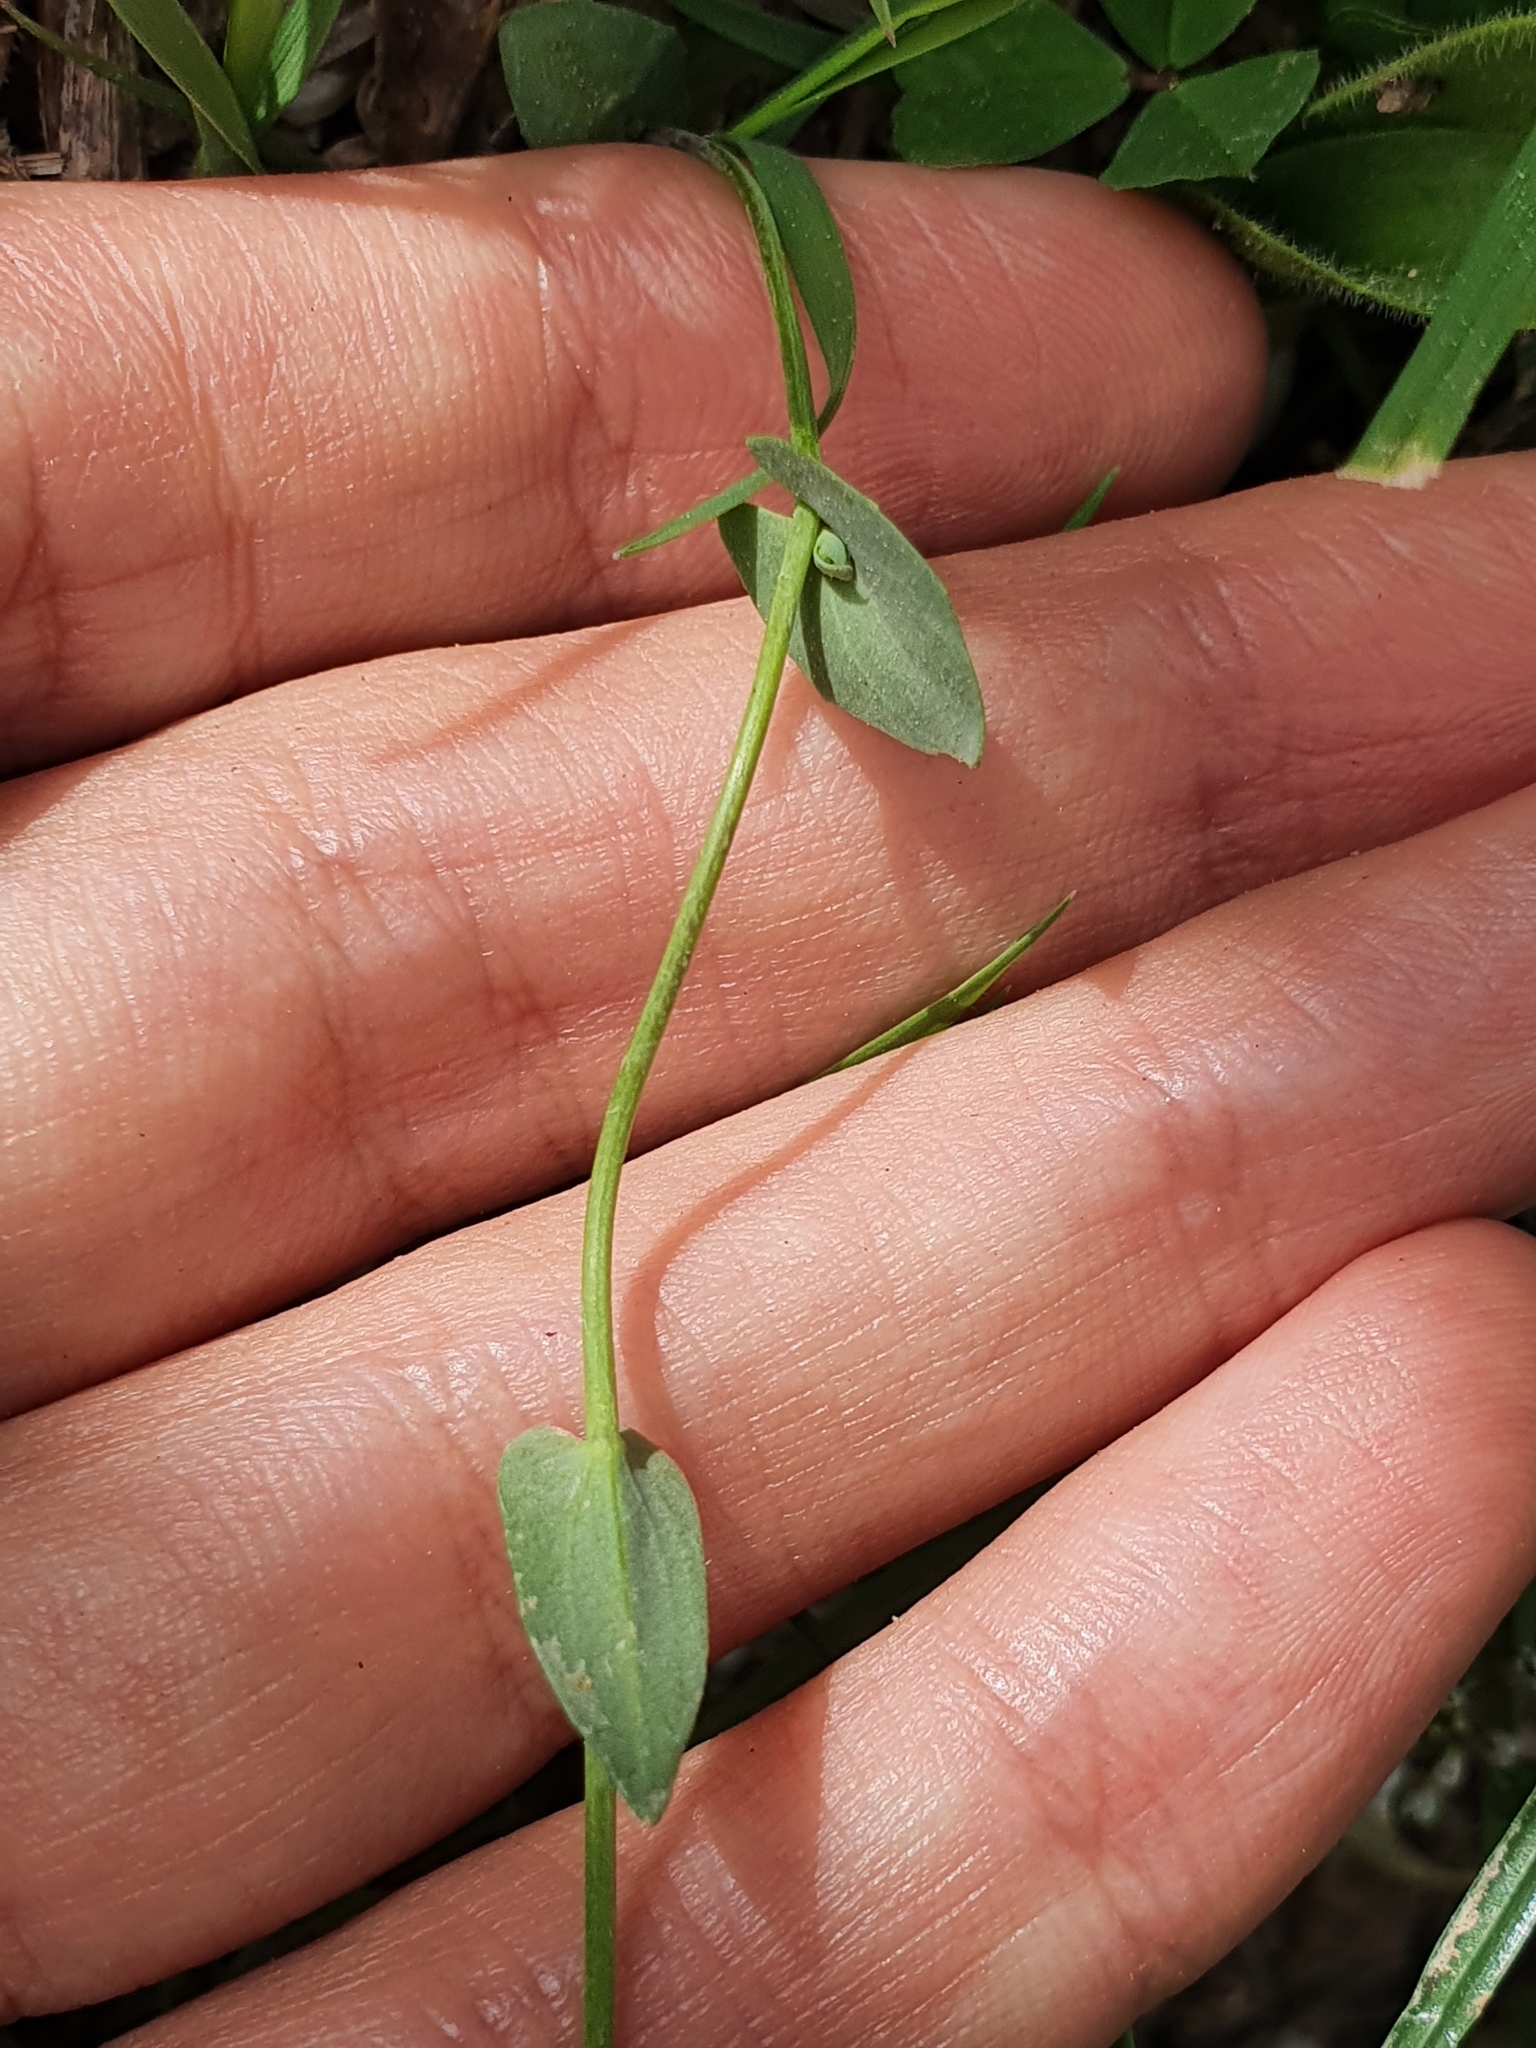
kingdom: Plantae
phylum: Tracheophyta
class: Magnoliopsida
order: Brassicales
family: Brassicaceae
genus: Noccaea
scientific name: Noccaea perfoliata
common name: Perfoliate pennycress
